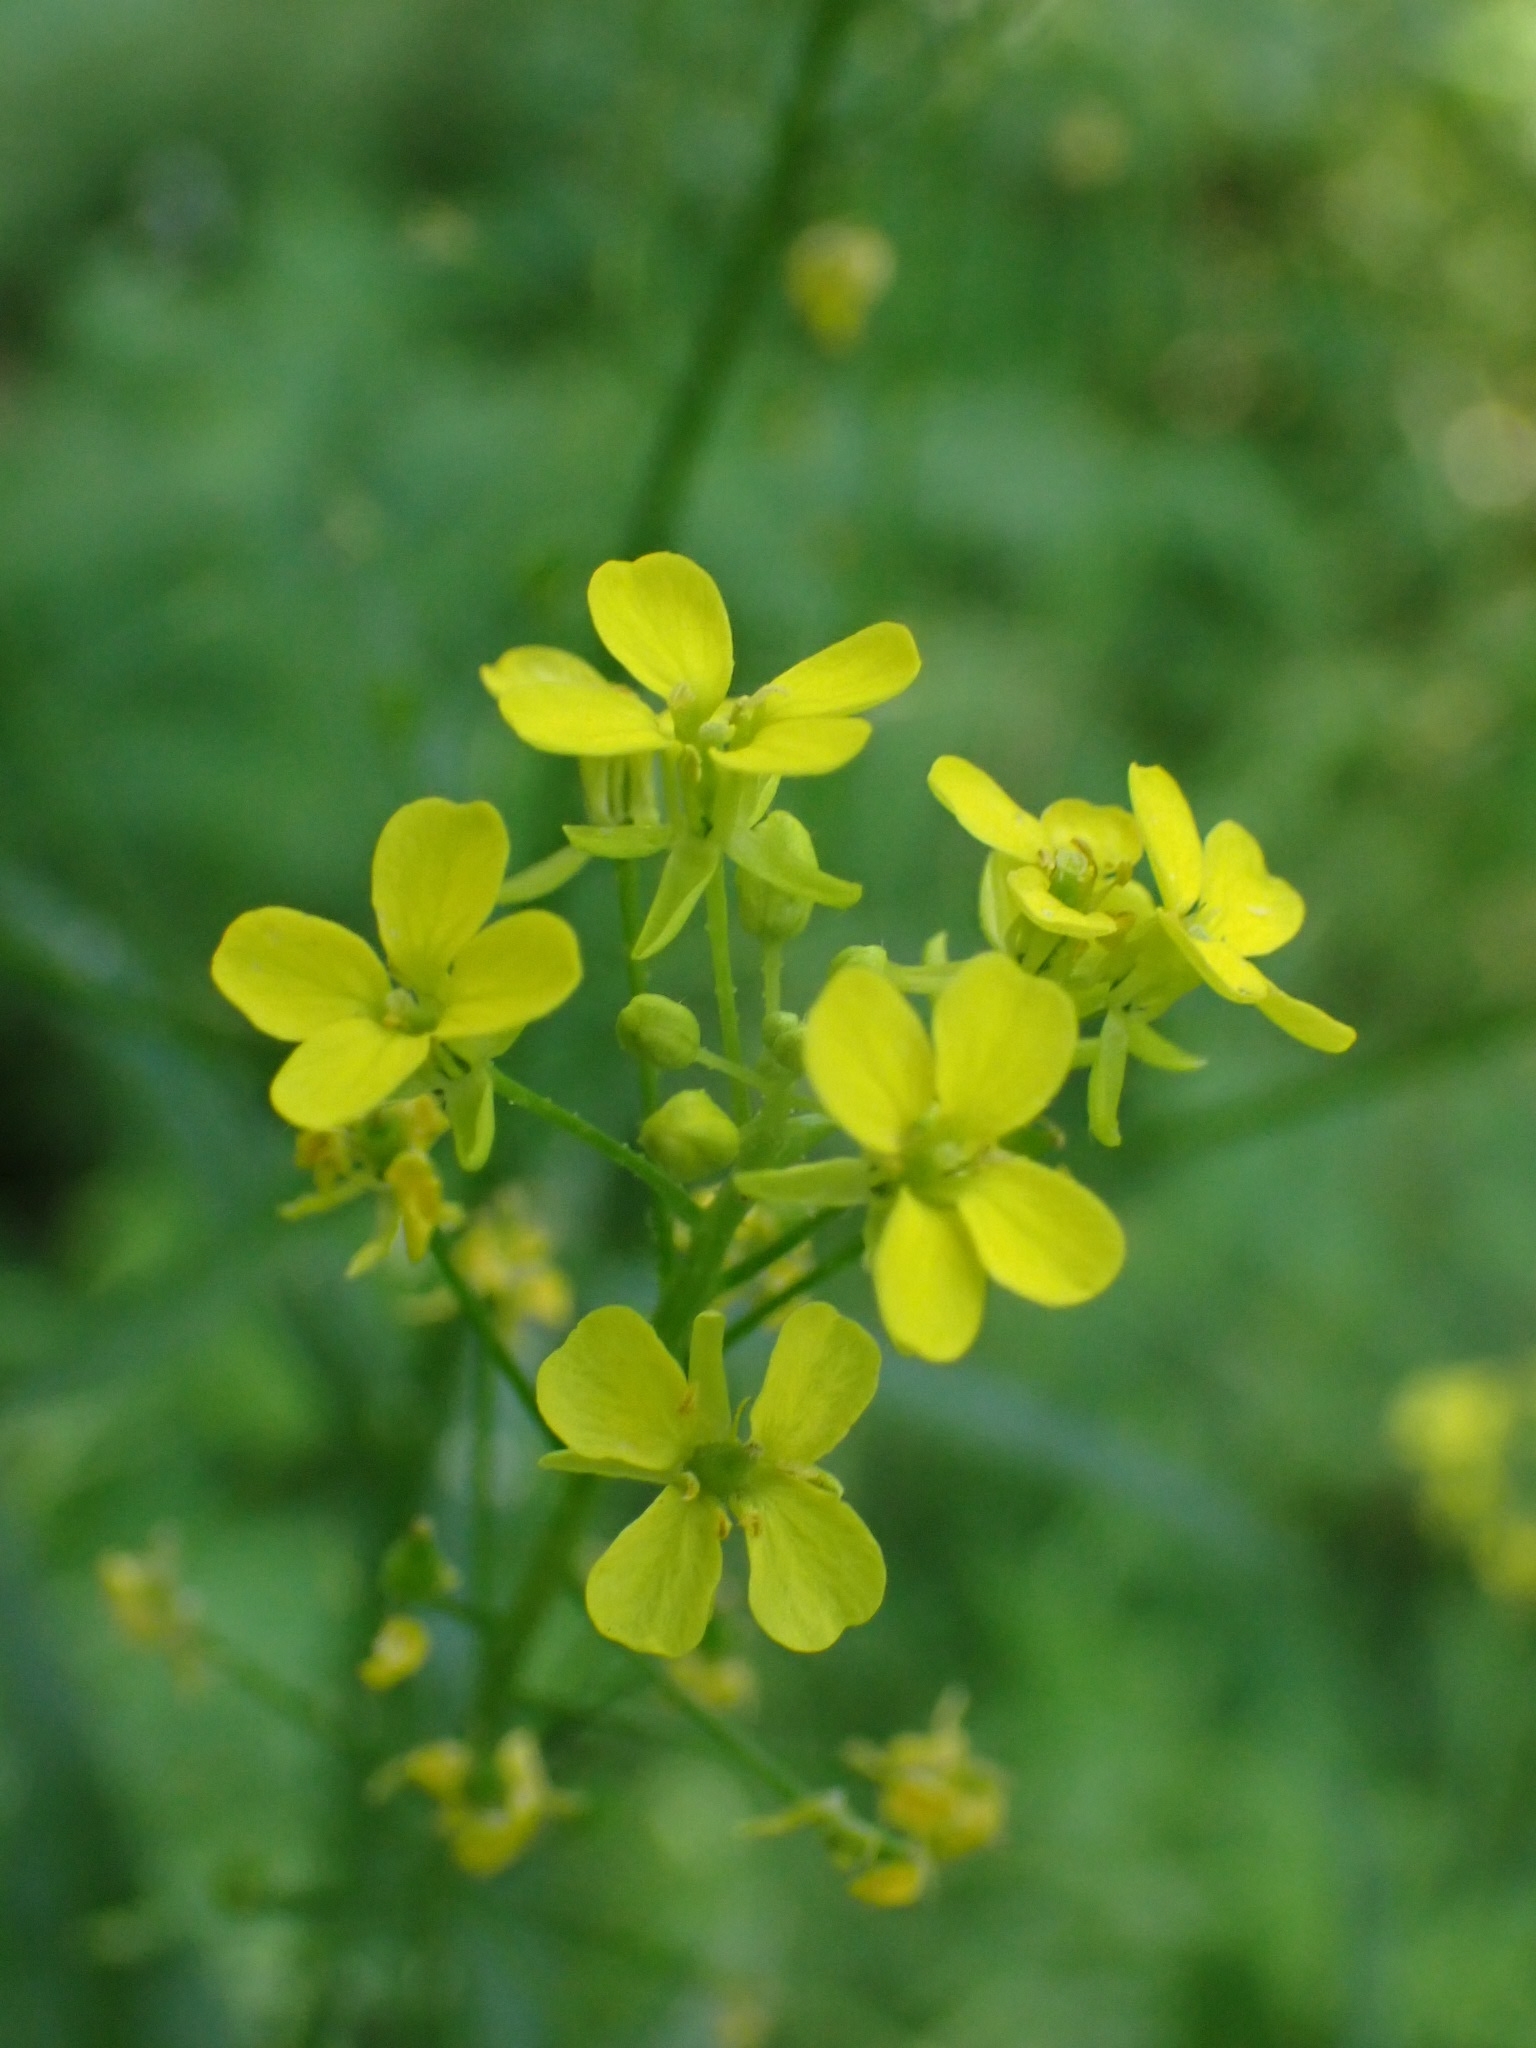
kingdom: Plantae
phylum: Tracheophyta
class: Magnoliopsida
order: Brassicales
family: Brassicaceae
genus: Bunias
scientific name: Bunias orientalis
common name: Warty-cabbage
